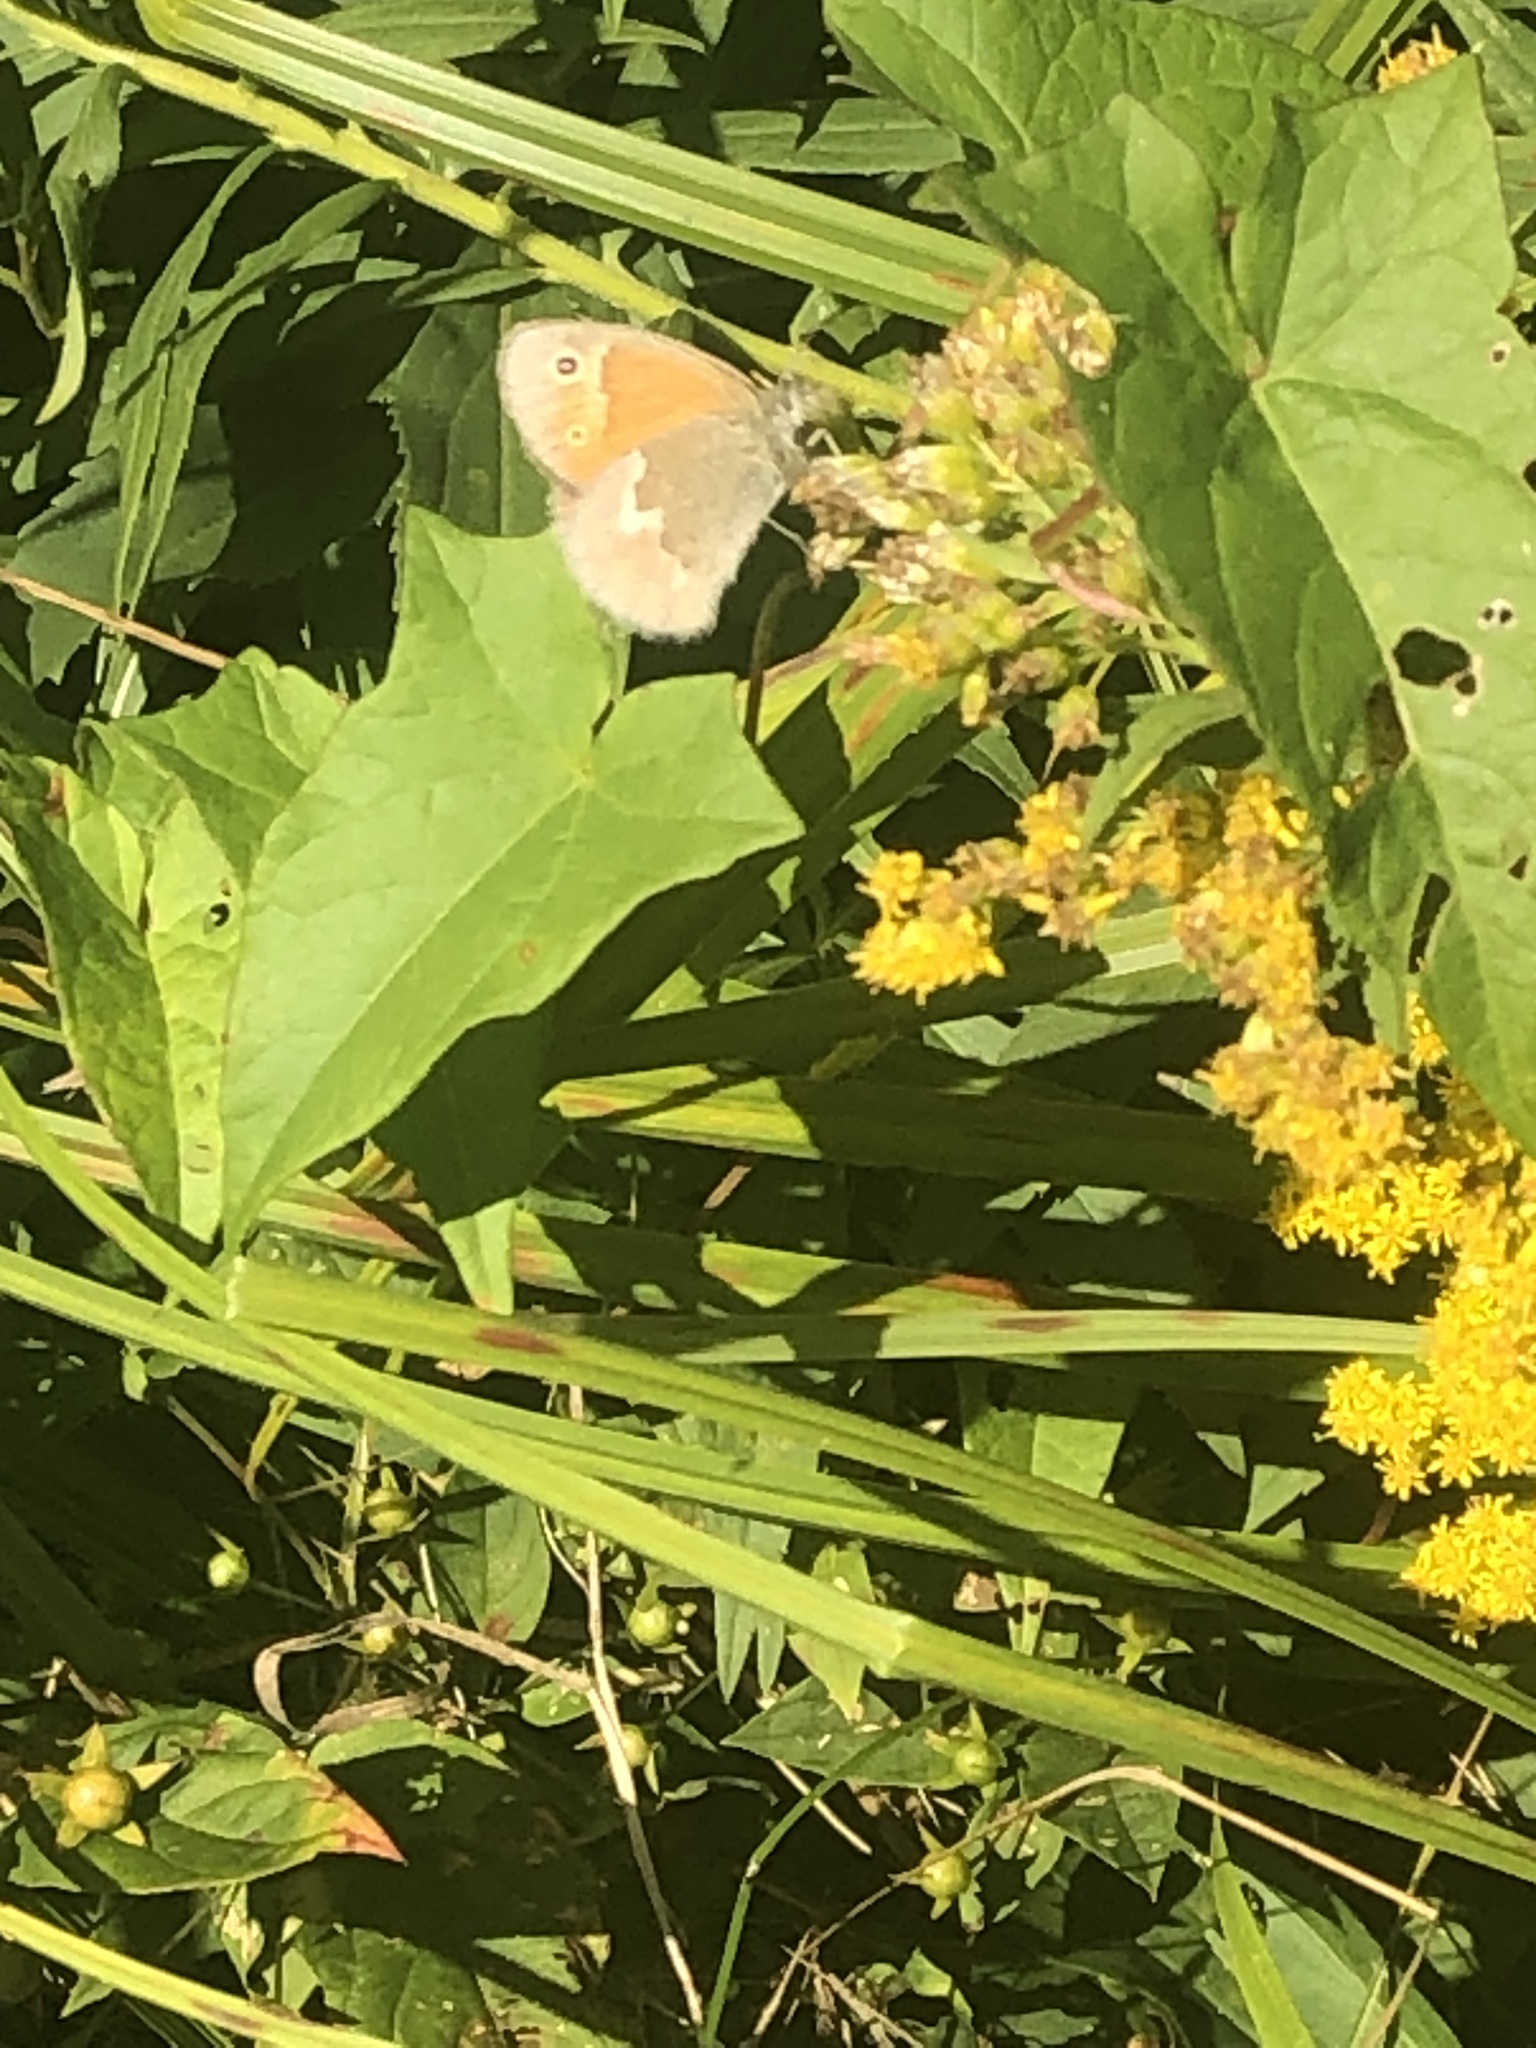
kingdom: Animalia
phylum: Arthropoda
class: Insecta
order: Lepidoptera
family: Nymphalidae
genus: Coenonympha
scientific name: Coenonympha california
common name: Common ringlet
